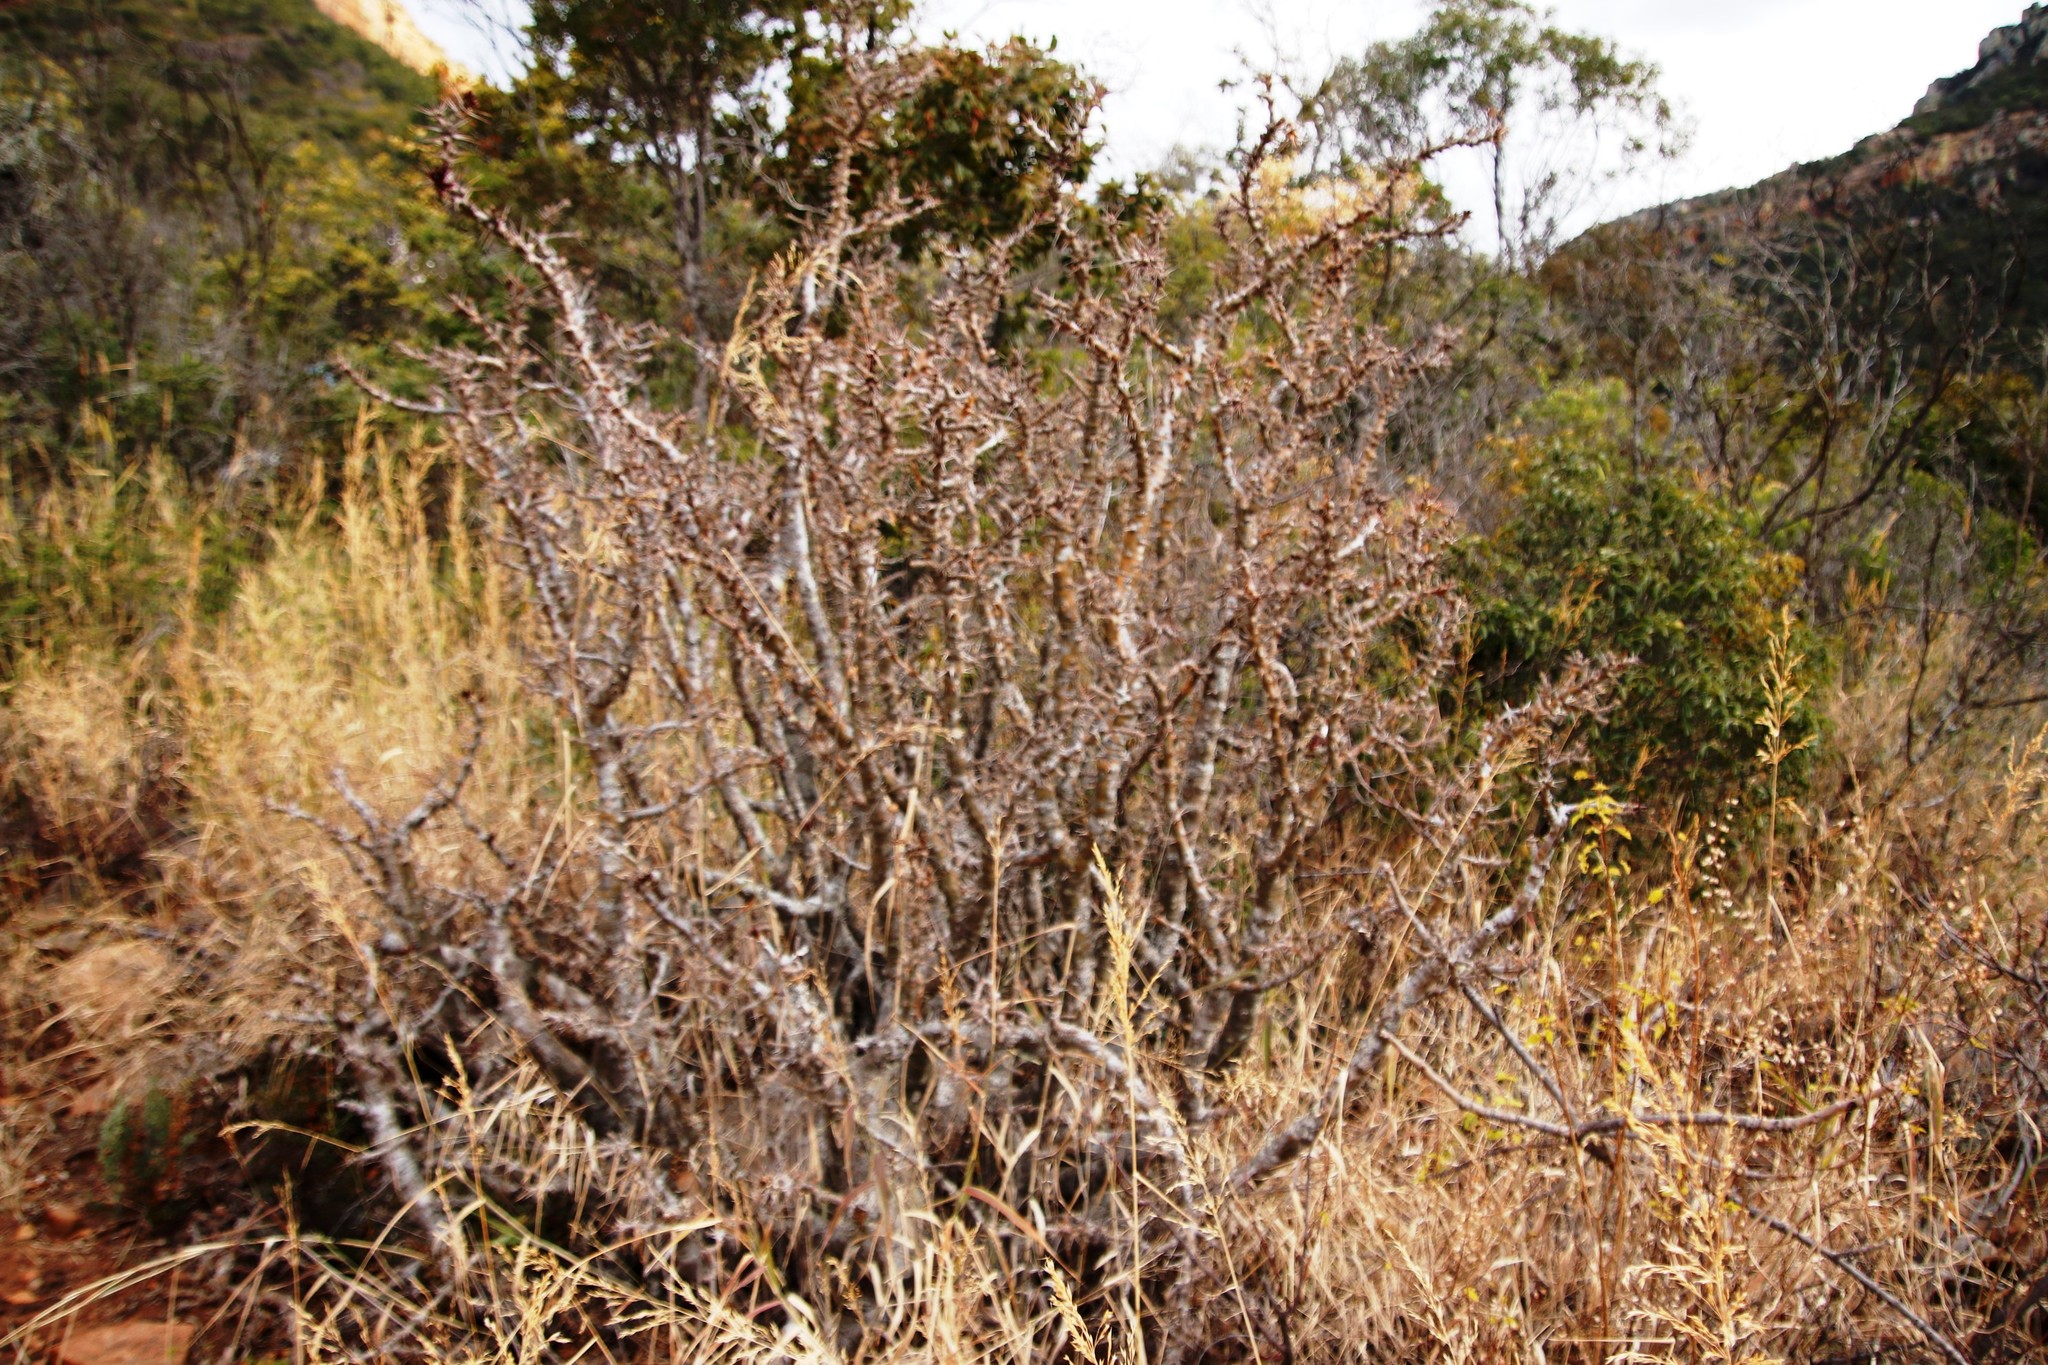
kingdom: Plantae
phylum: Tracheophyta
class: Magnoliopsida
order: Gentianales
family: Apocynaceae
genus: Pachypodium
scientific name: Pachypodium saundersii
